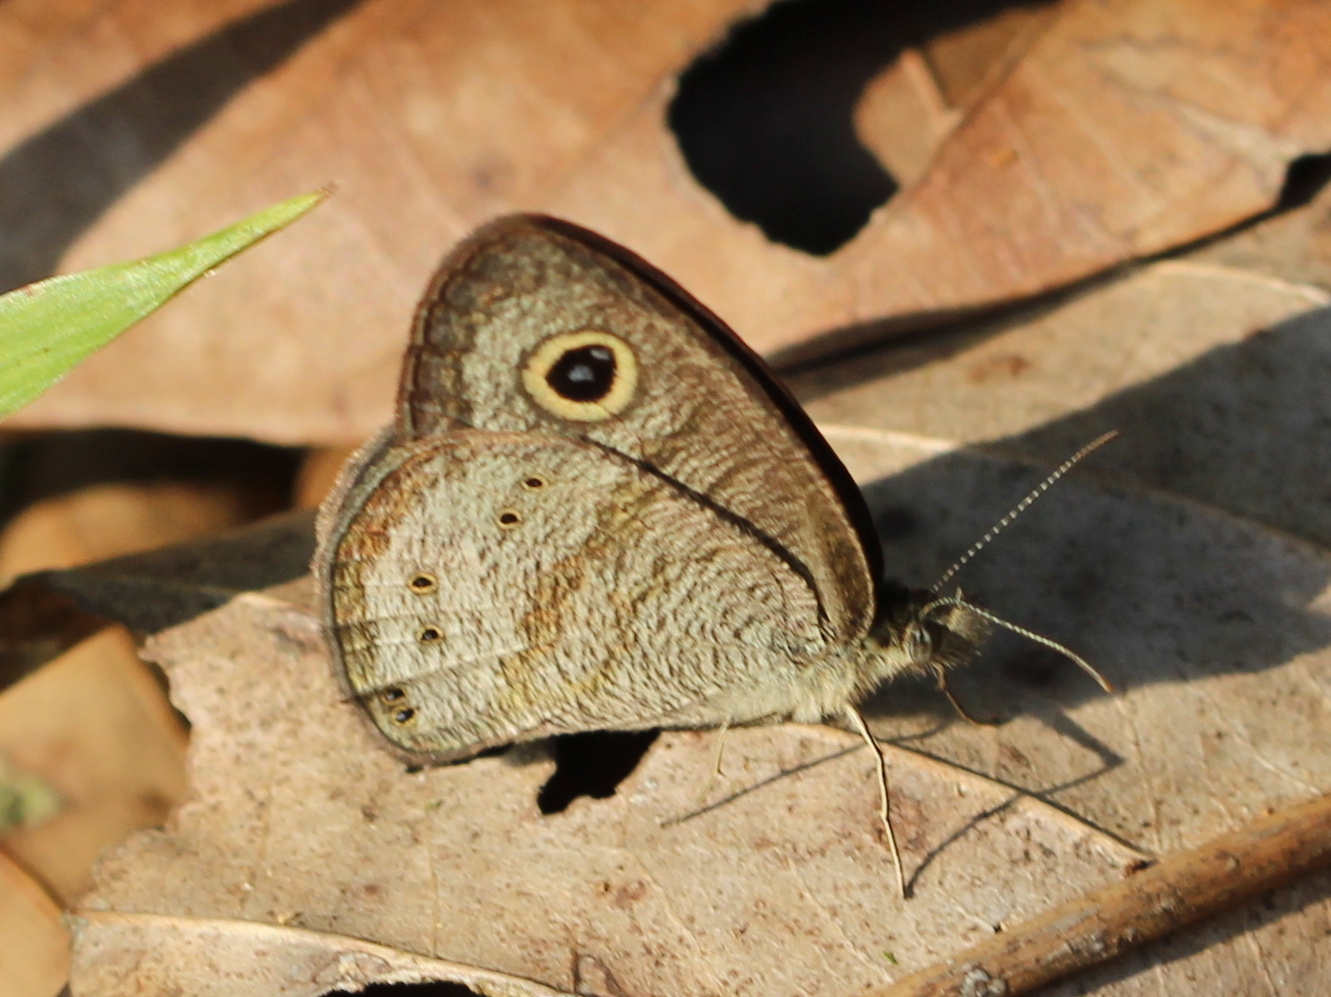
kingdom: Animalia
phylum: Arthropoda
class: Insecta
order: Lepidoptera
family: Nymphalidae
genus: Ypthima
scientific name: Ypthima baldus
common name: Common five-ring
